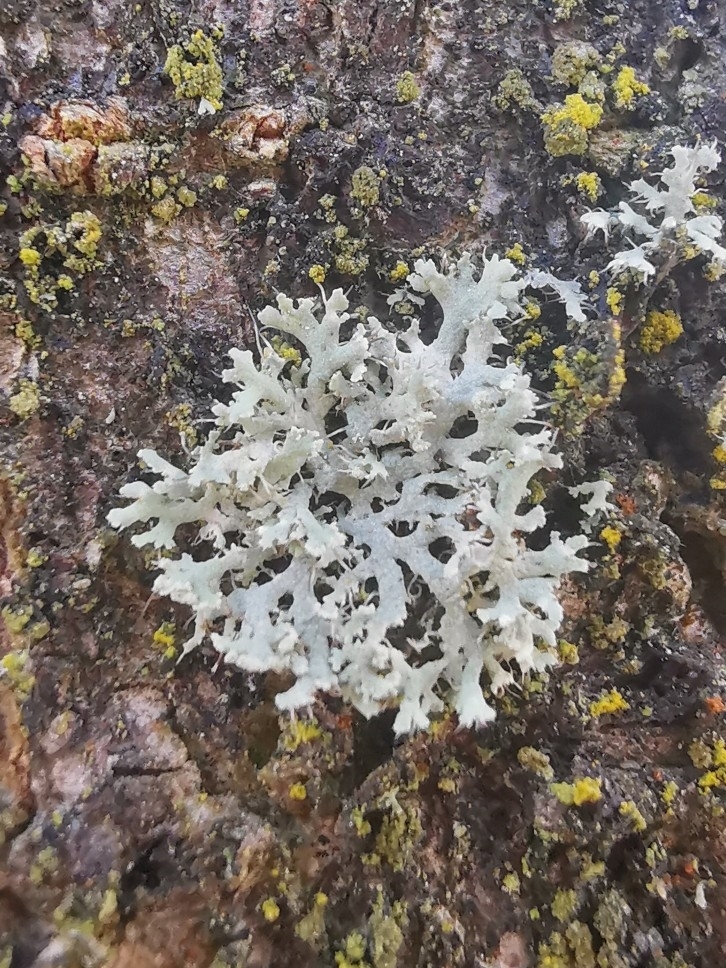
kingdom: Fungi
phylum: Ascomycota
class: Lecanoromycetes
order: Caliciales
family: Physciaceae
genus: Physcia
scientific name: Physcia tenella
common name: Fringed rosette lichen
